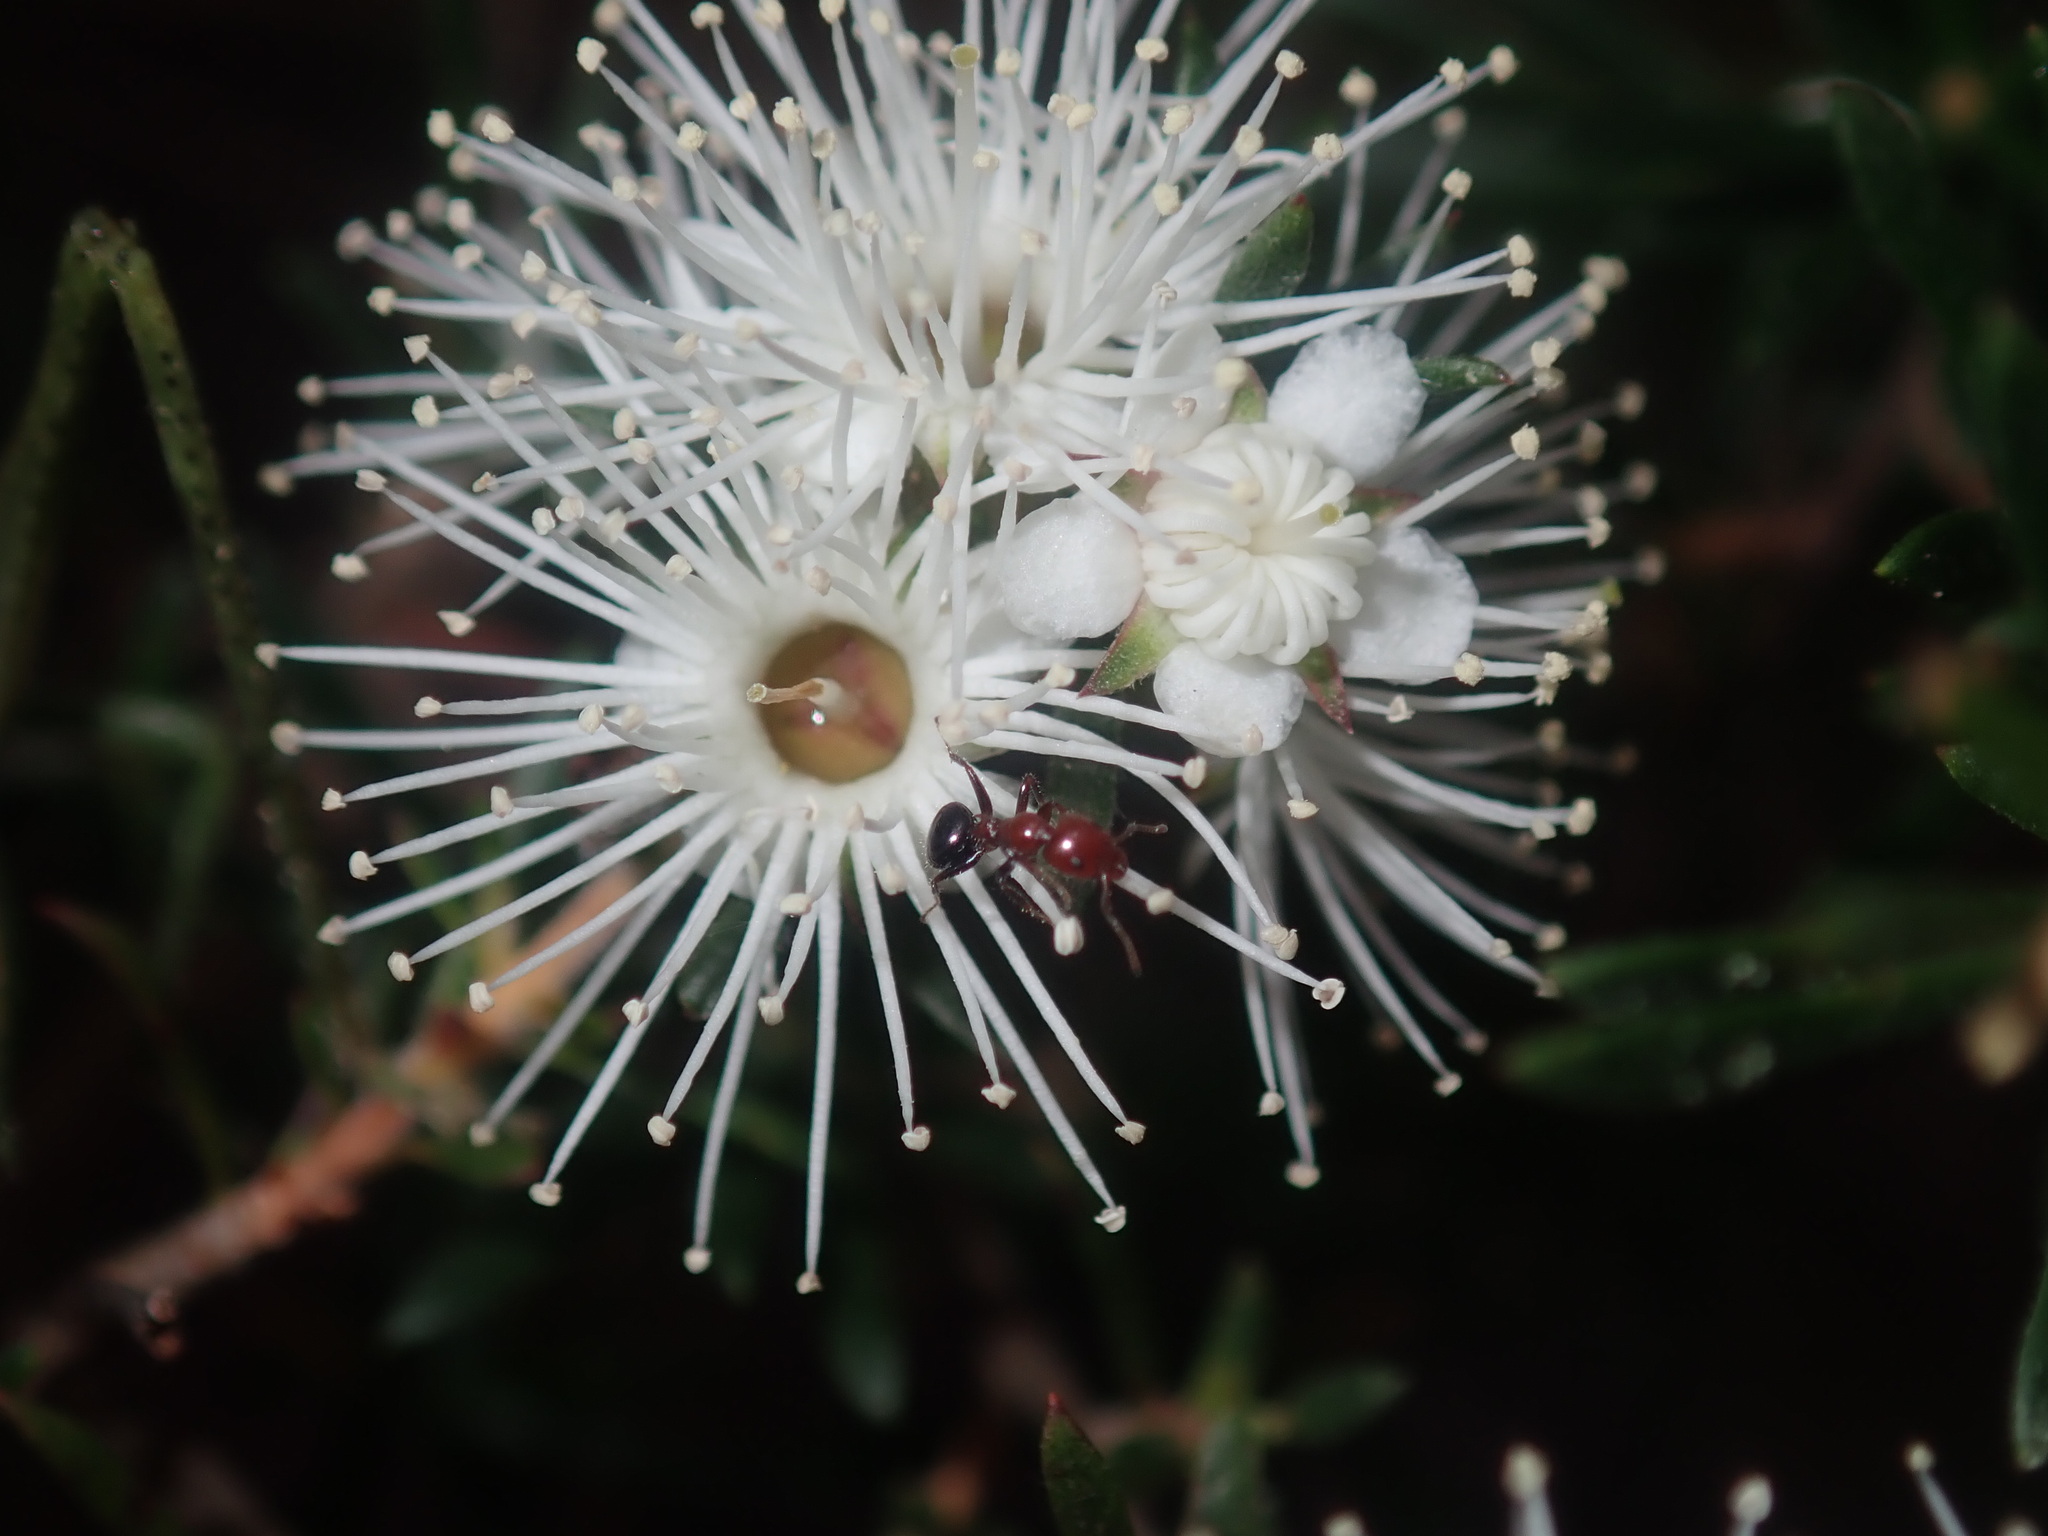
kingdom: Animalia
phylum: Arthropoda
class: Insecta
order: Hymenoptera
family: Formicidae
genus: Froggattella
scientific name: Froggattella kirbii
